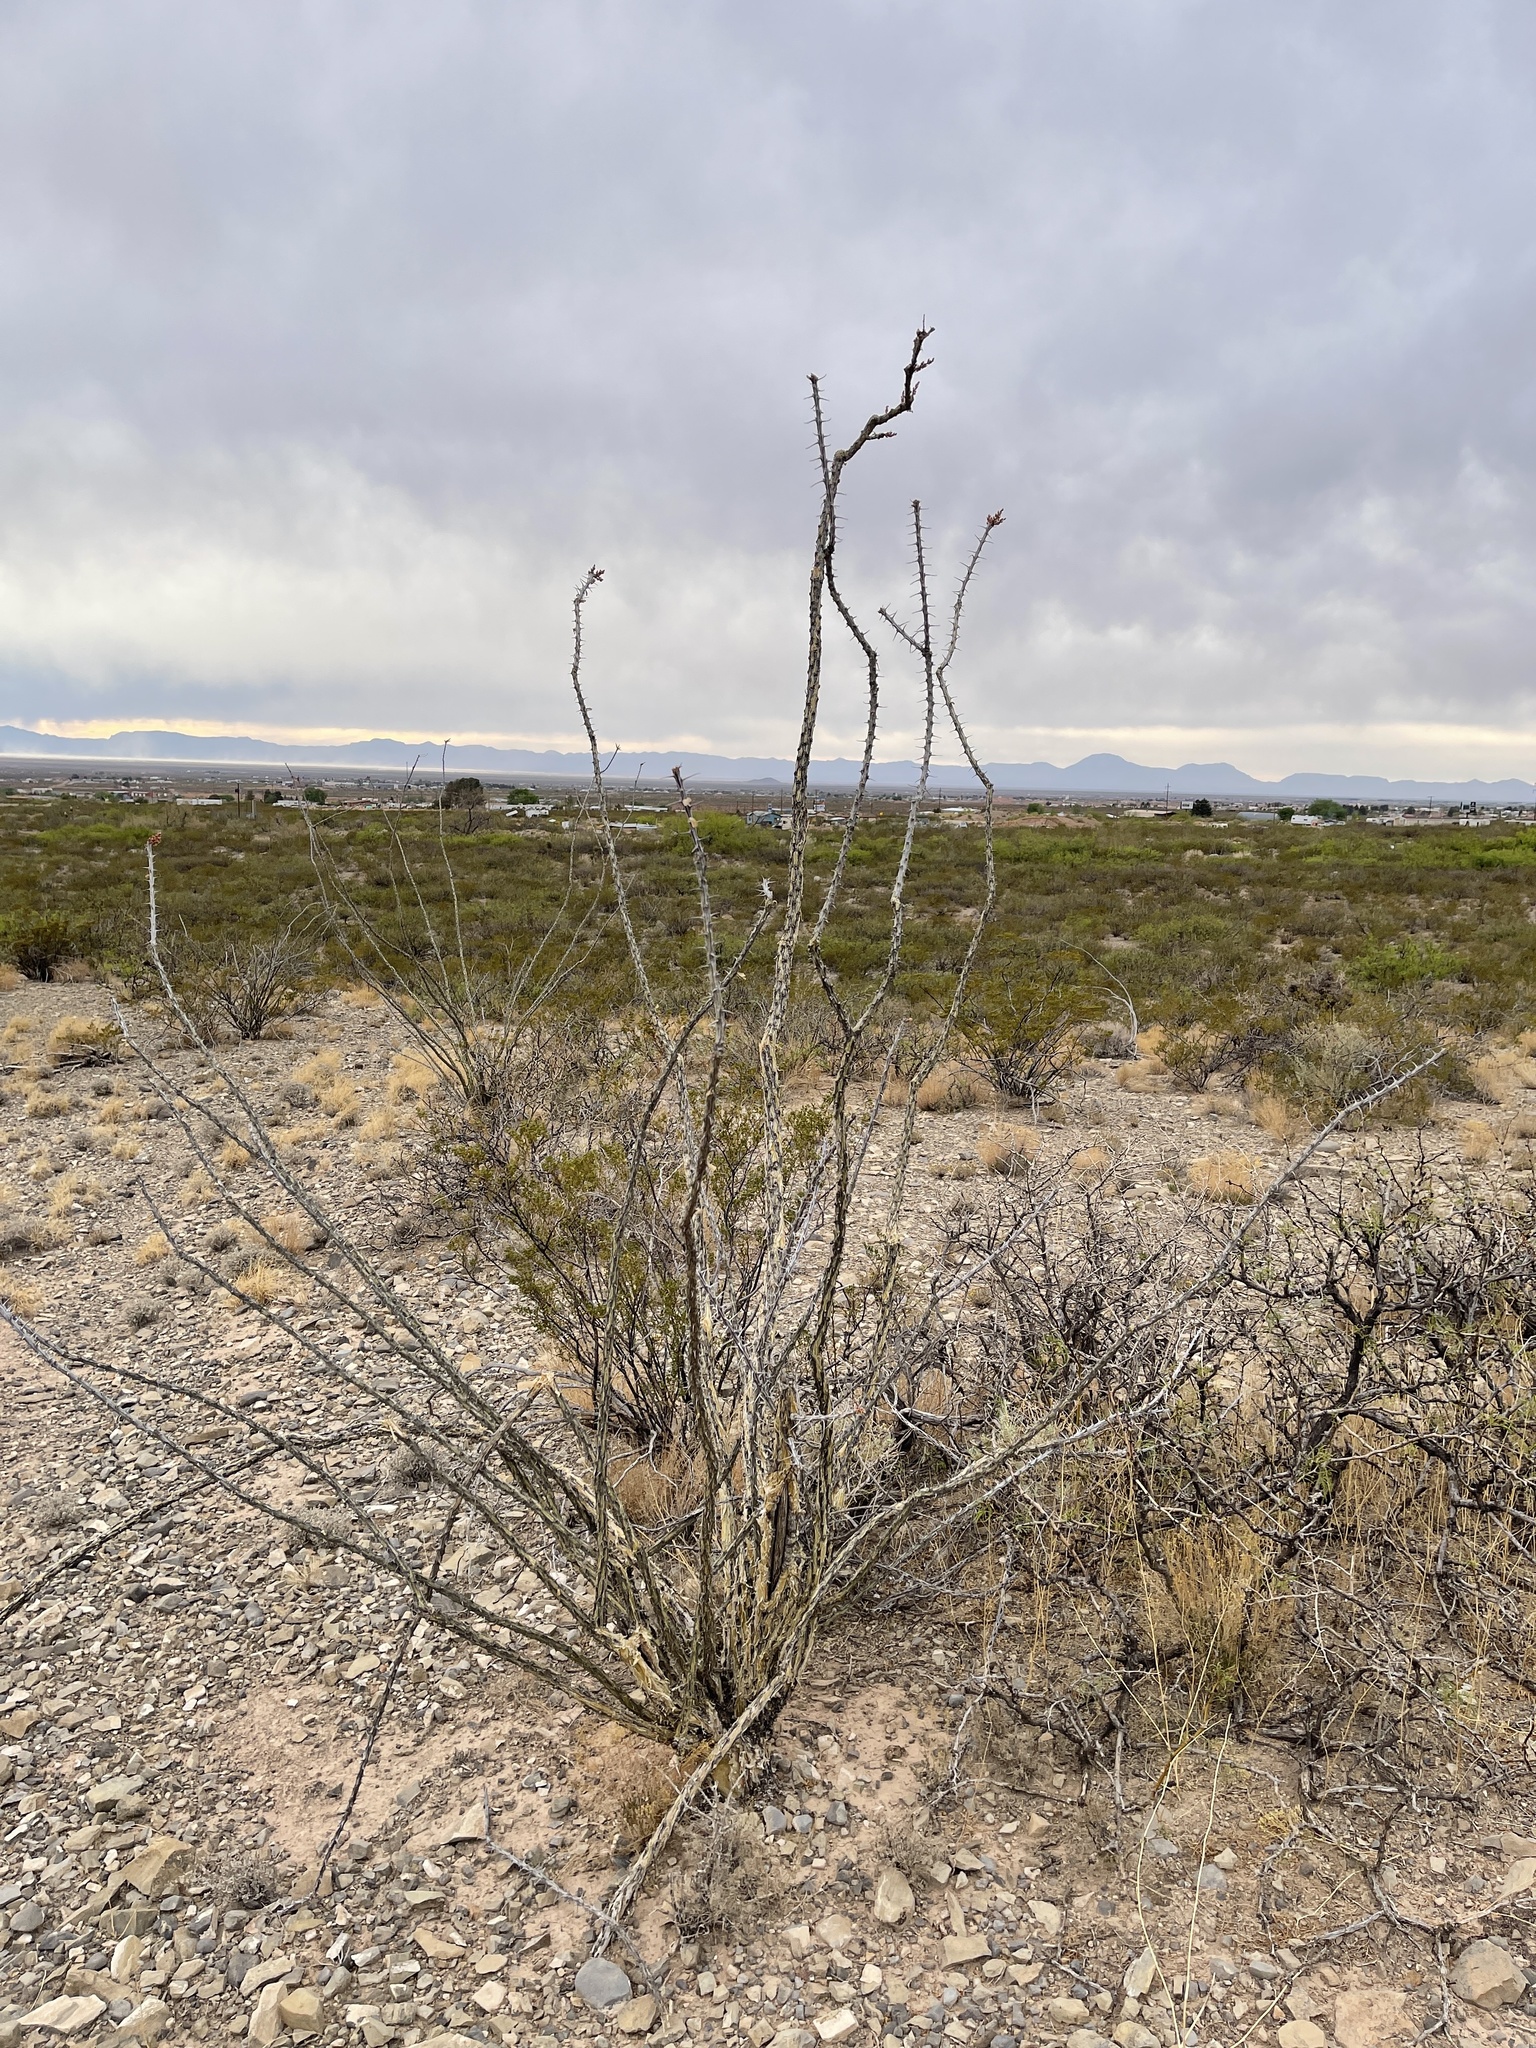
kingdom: Plantae
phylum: Tracheophyta
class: Magnoliopsida
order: Ericales
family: Fouquieriaceae
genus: Fouquieria
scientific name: Fouquieria splendens
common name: Vine-cactus
